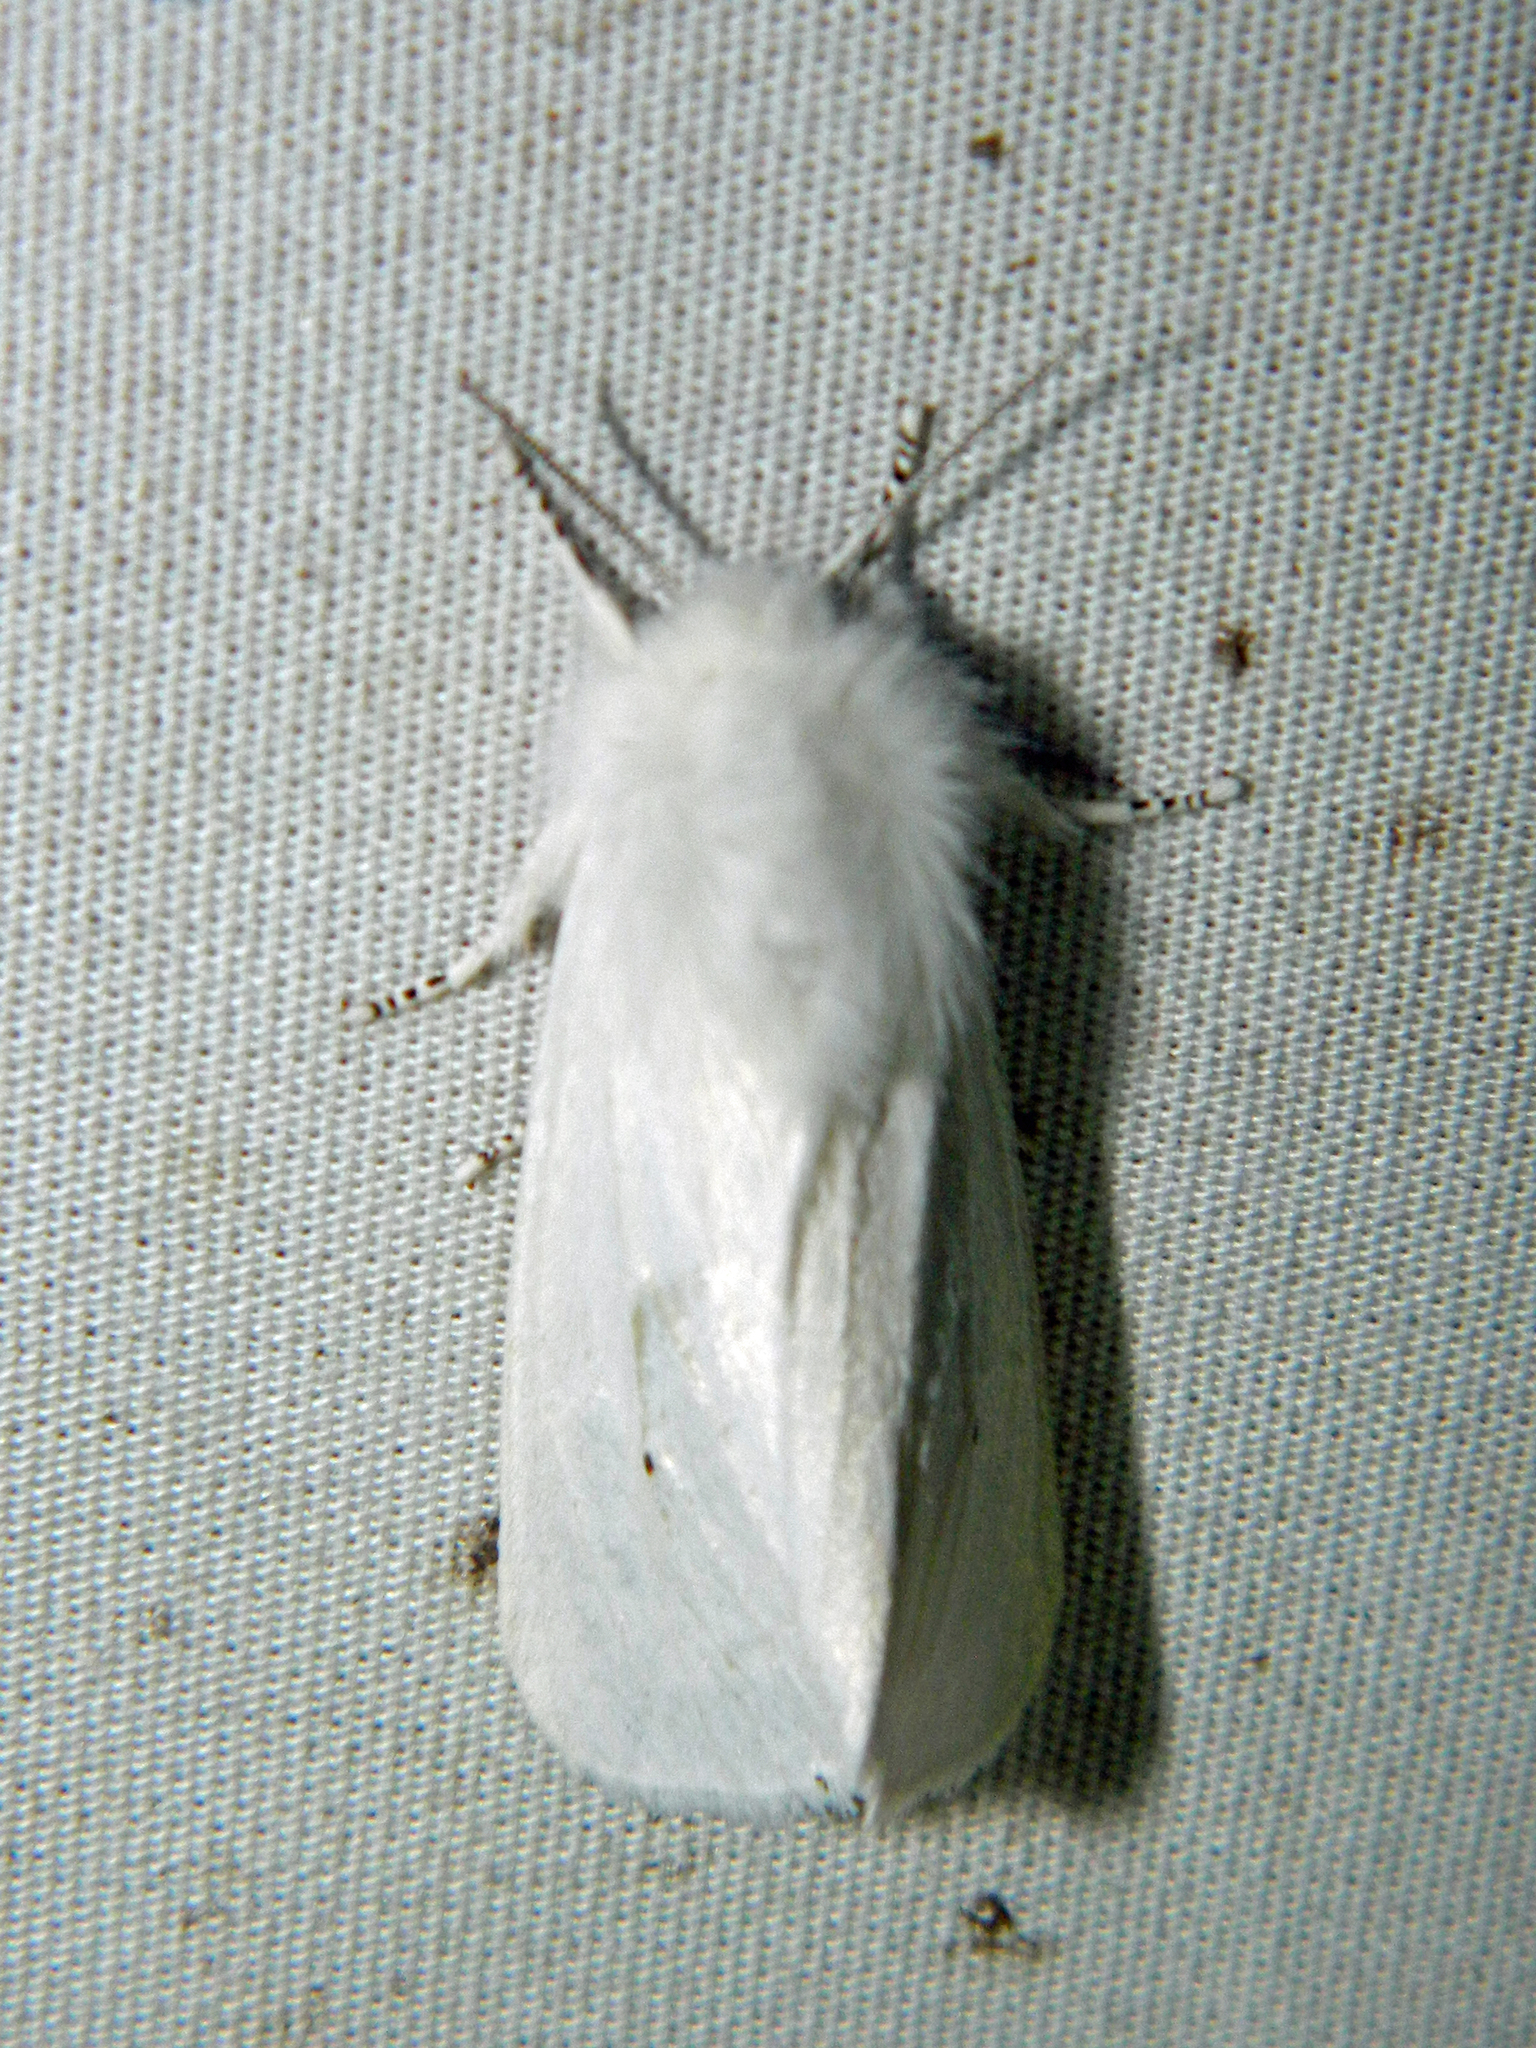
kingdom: Animalia
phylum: Arthropoda
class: Insecta
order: Lepidoptera
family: Erebidae
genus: Spilosoma
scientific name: Spilosoma virginica
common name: Virginia tiger moth
